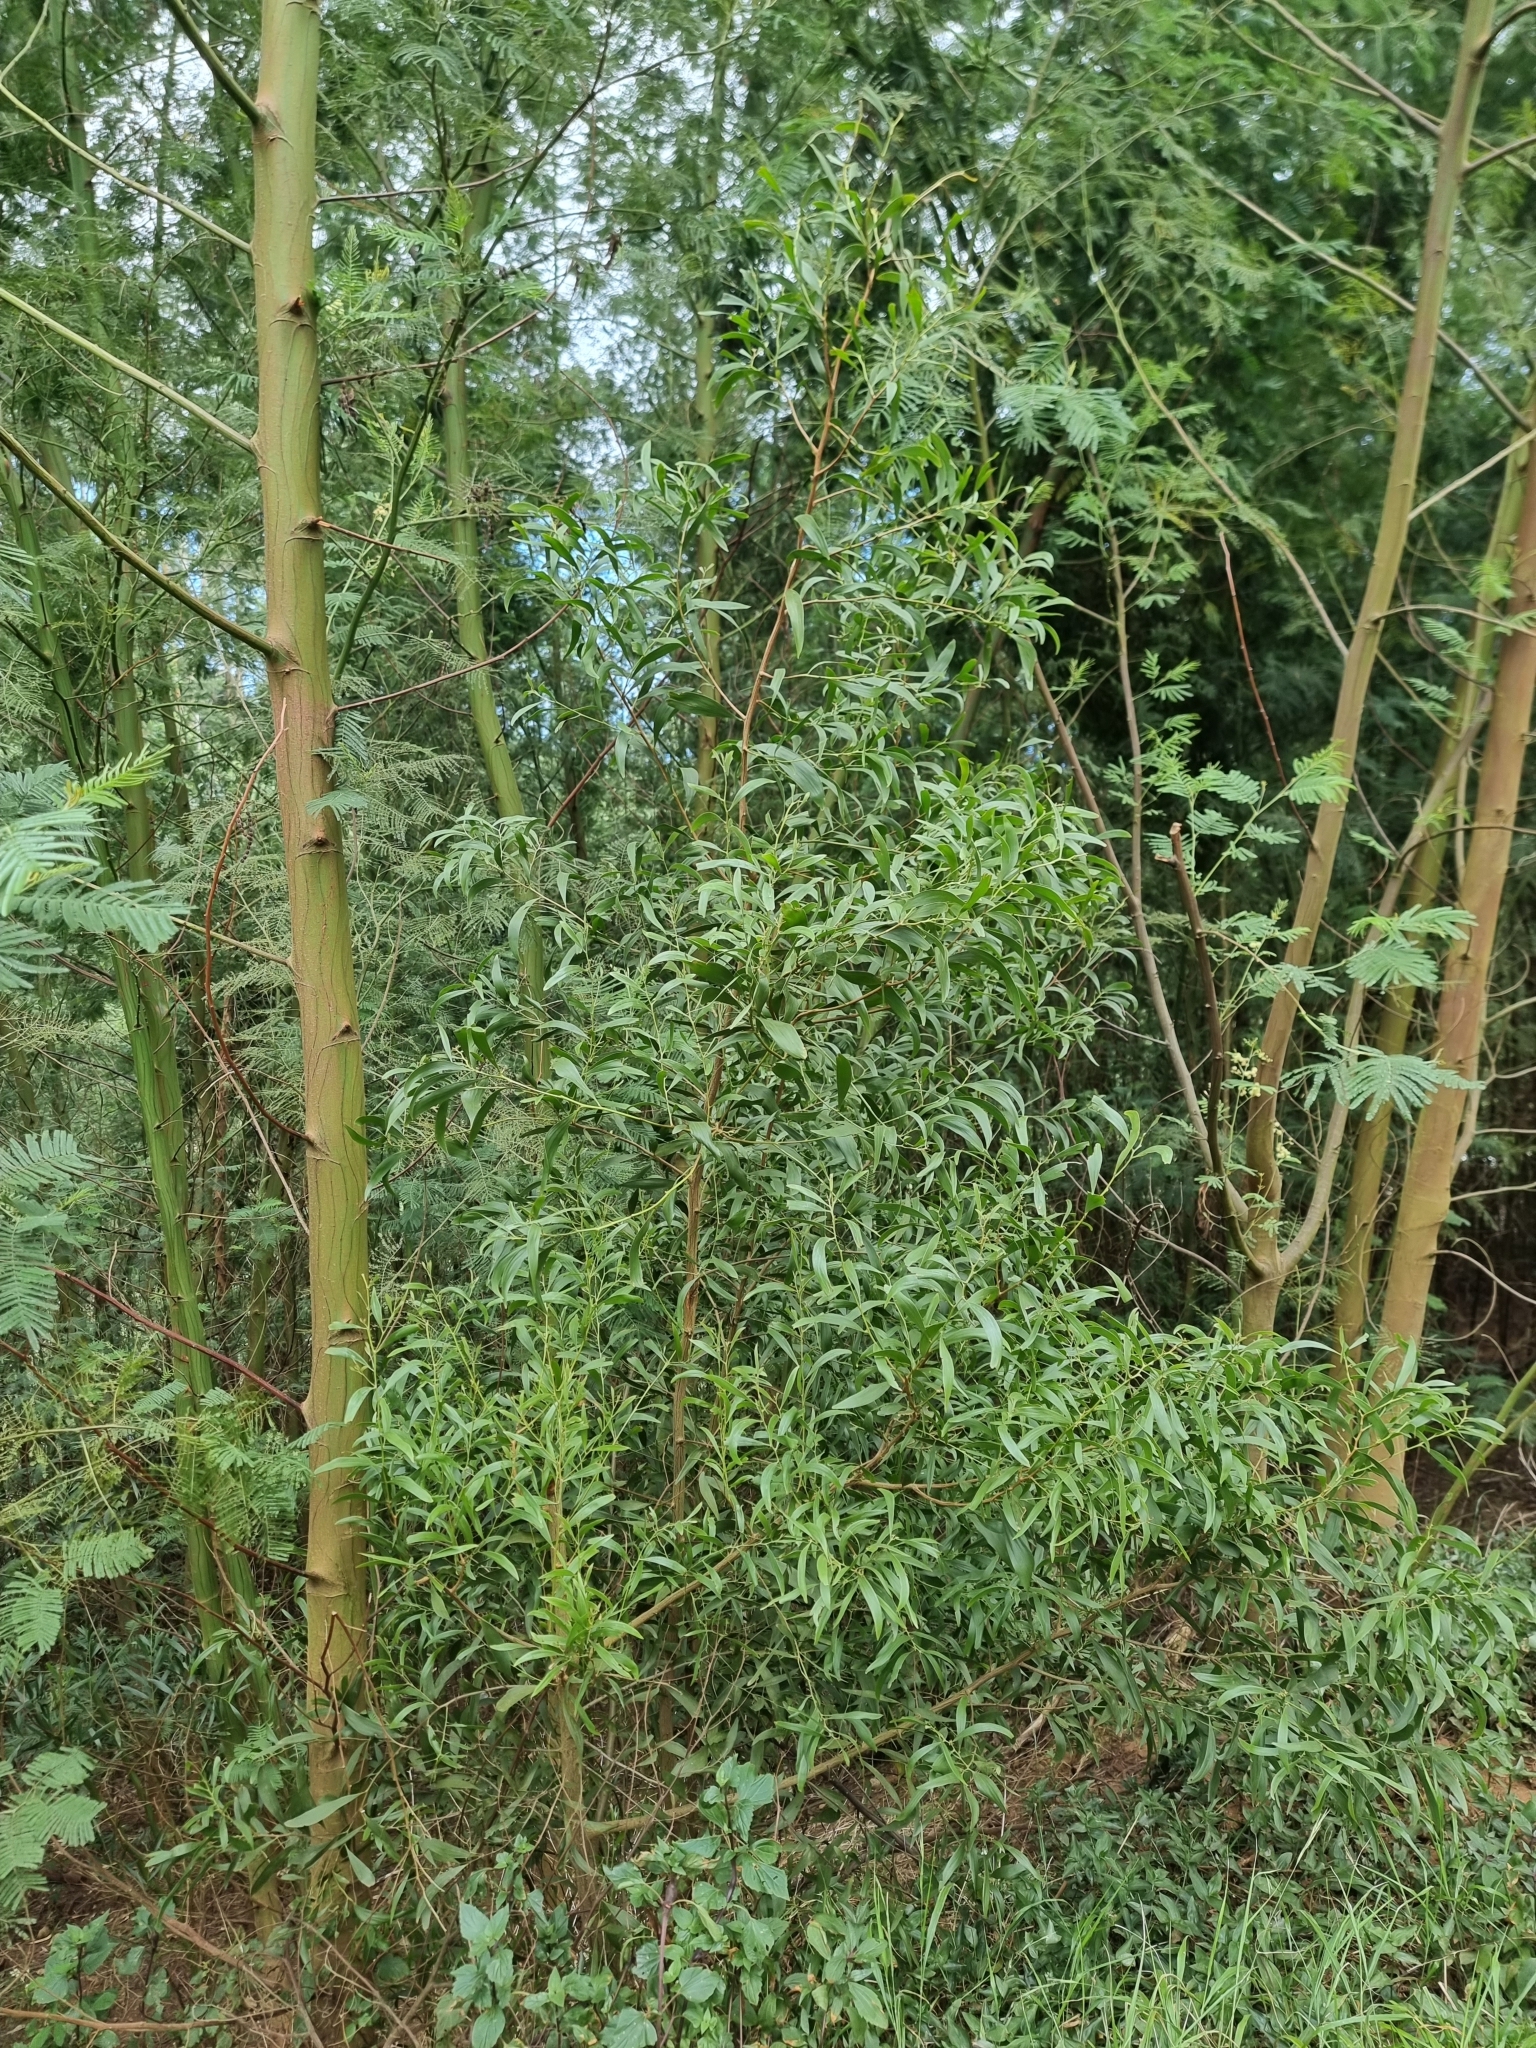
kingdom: Plantae
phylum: Tracheophyta
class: Magnoliopsida
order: Fabales
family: Fabaceae
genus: Acacia
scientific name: Acacia melanoxylon
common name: Blackwood
